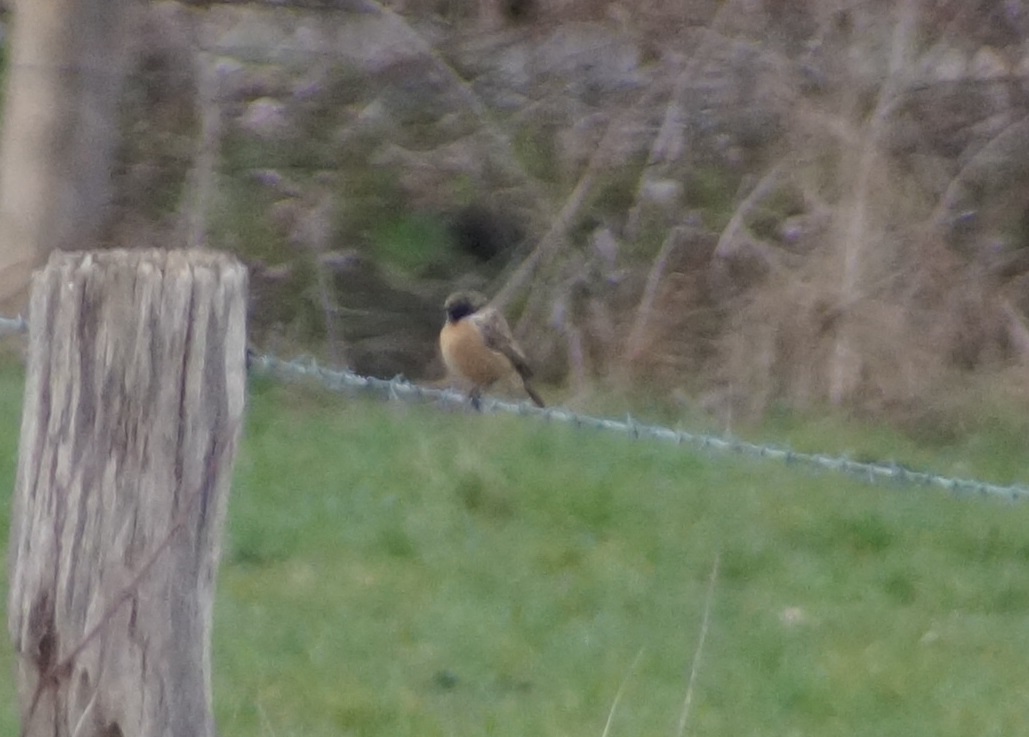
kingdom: Animalia
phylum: Chordata
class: Aves
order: Passeriformes
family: Muscicapidae
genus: Saxicola
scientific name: Saxicola rubicola
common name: European stonechat
